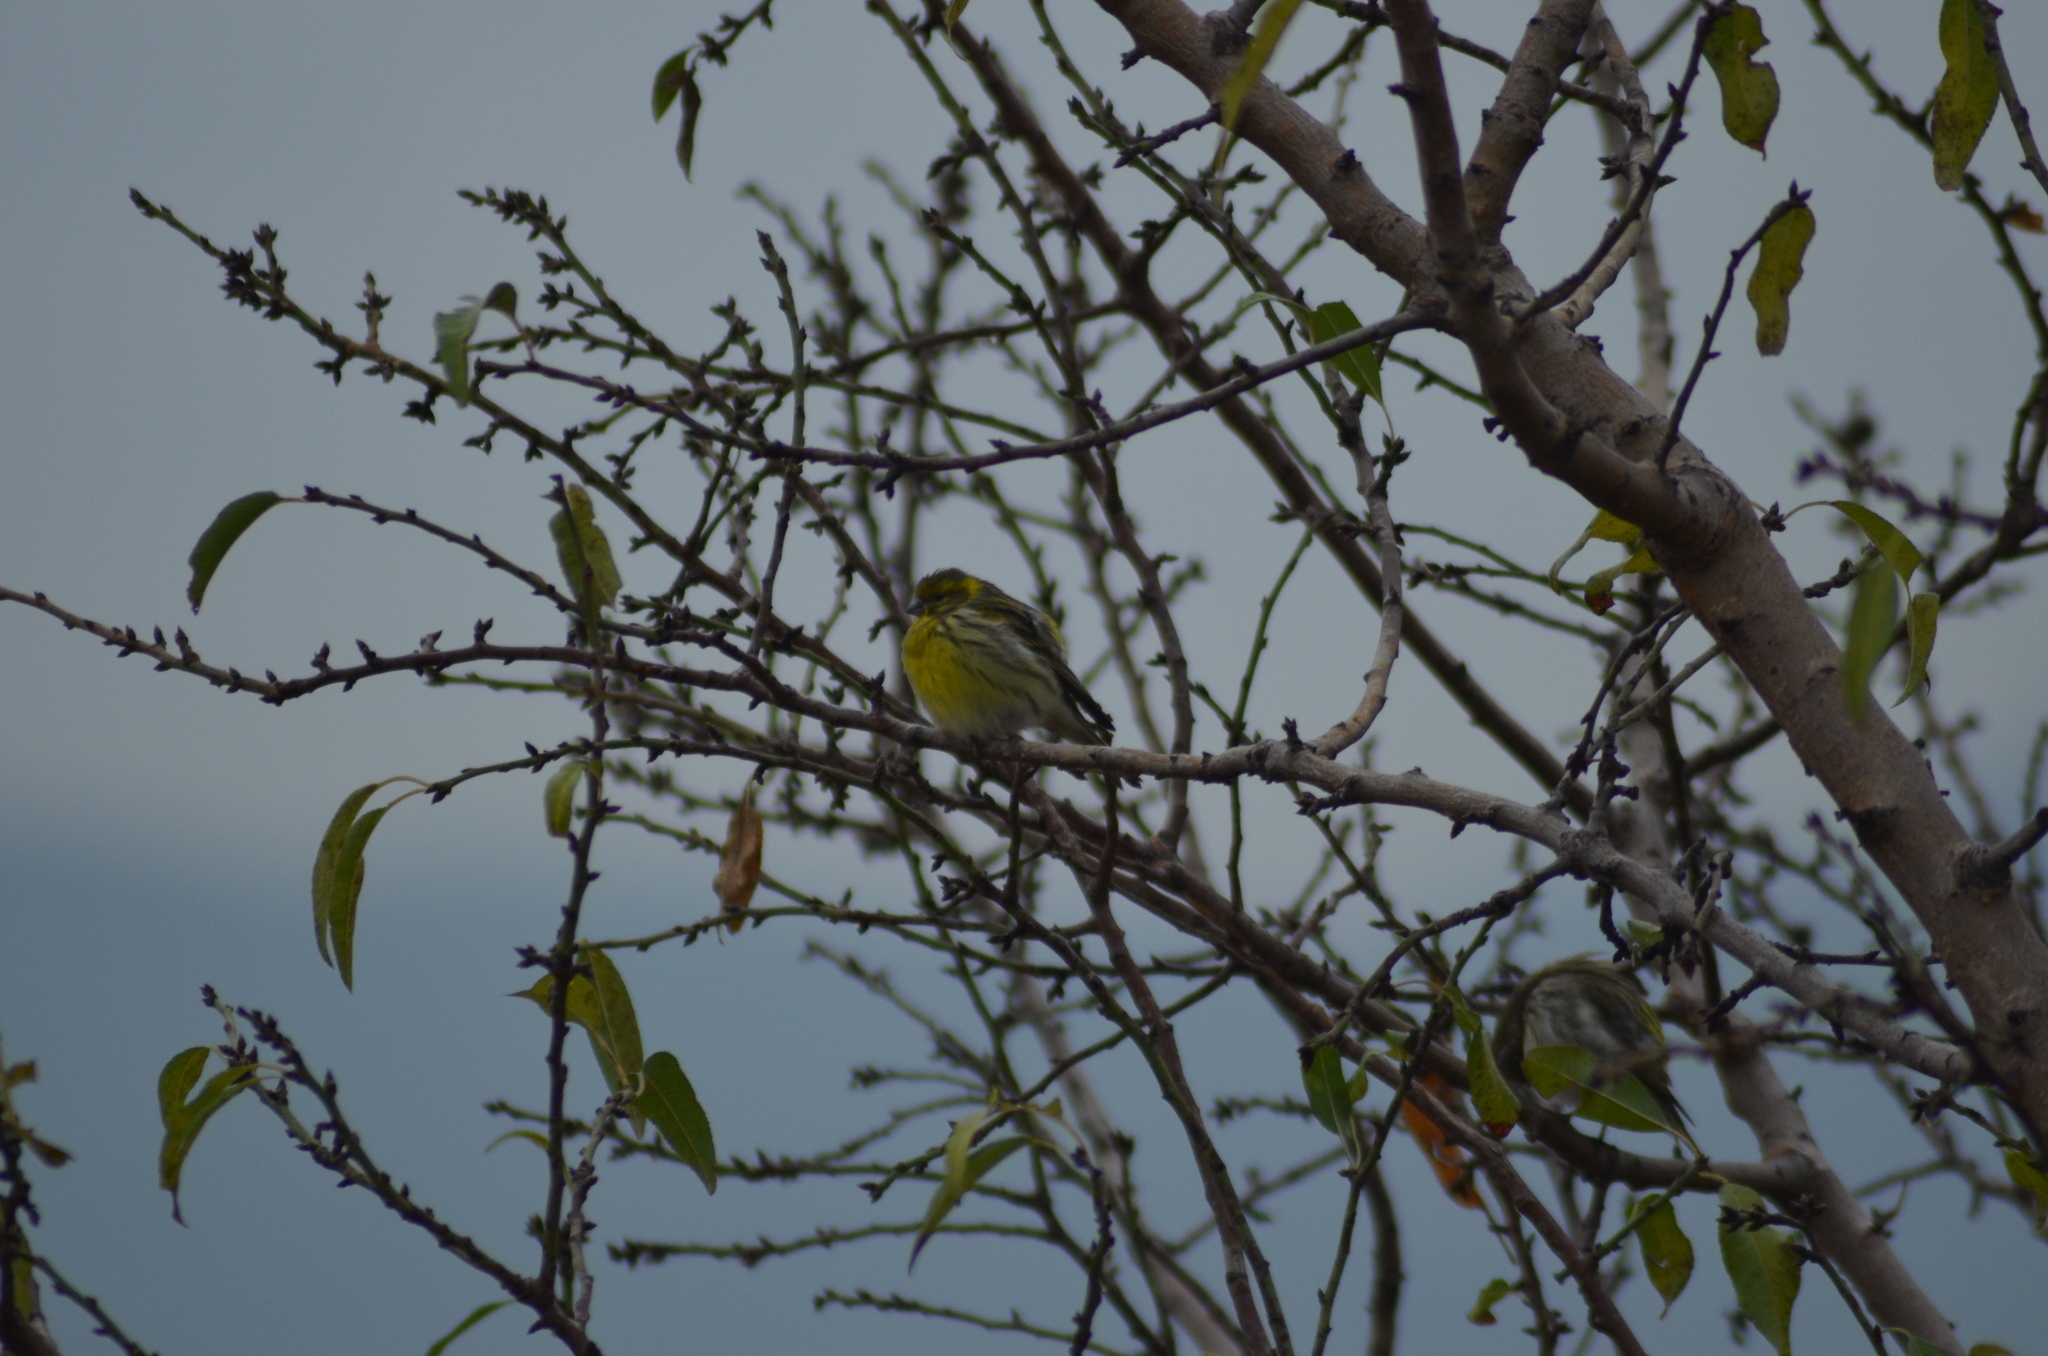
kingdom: Animalia
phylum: Chordata
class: Aves
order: Passeriformes
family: Fringillidae
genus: Serinus
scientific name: Serinus serinus
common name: European serin
